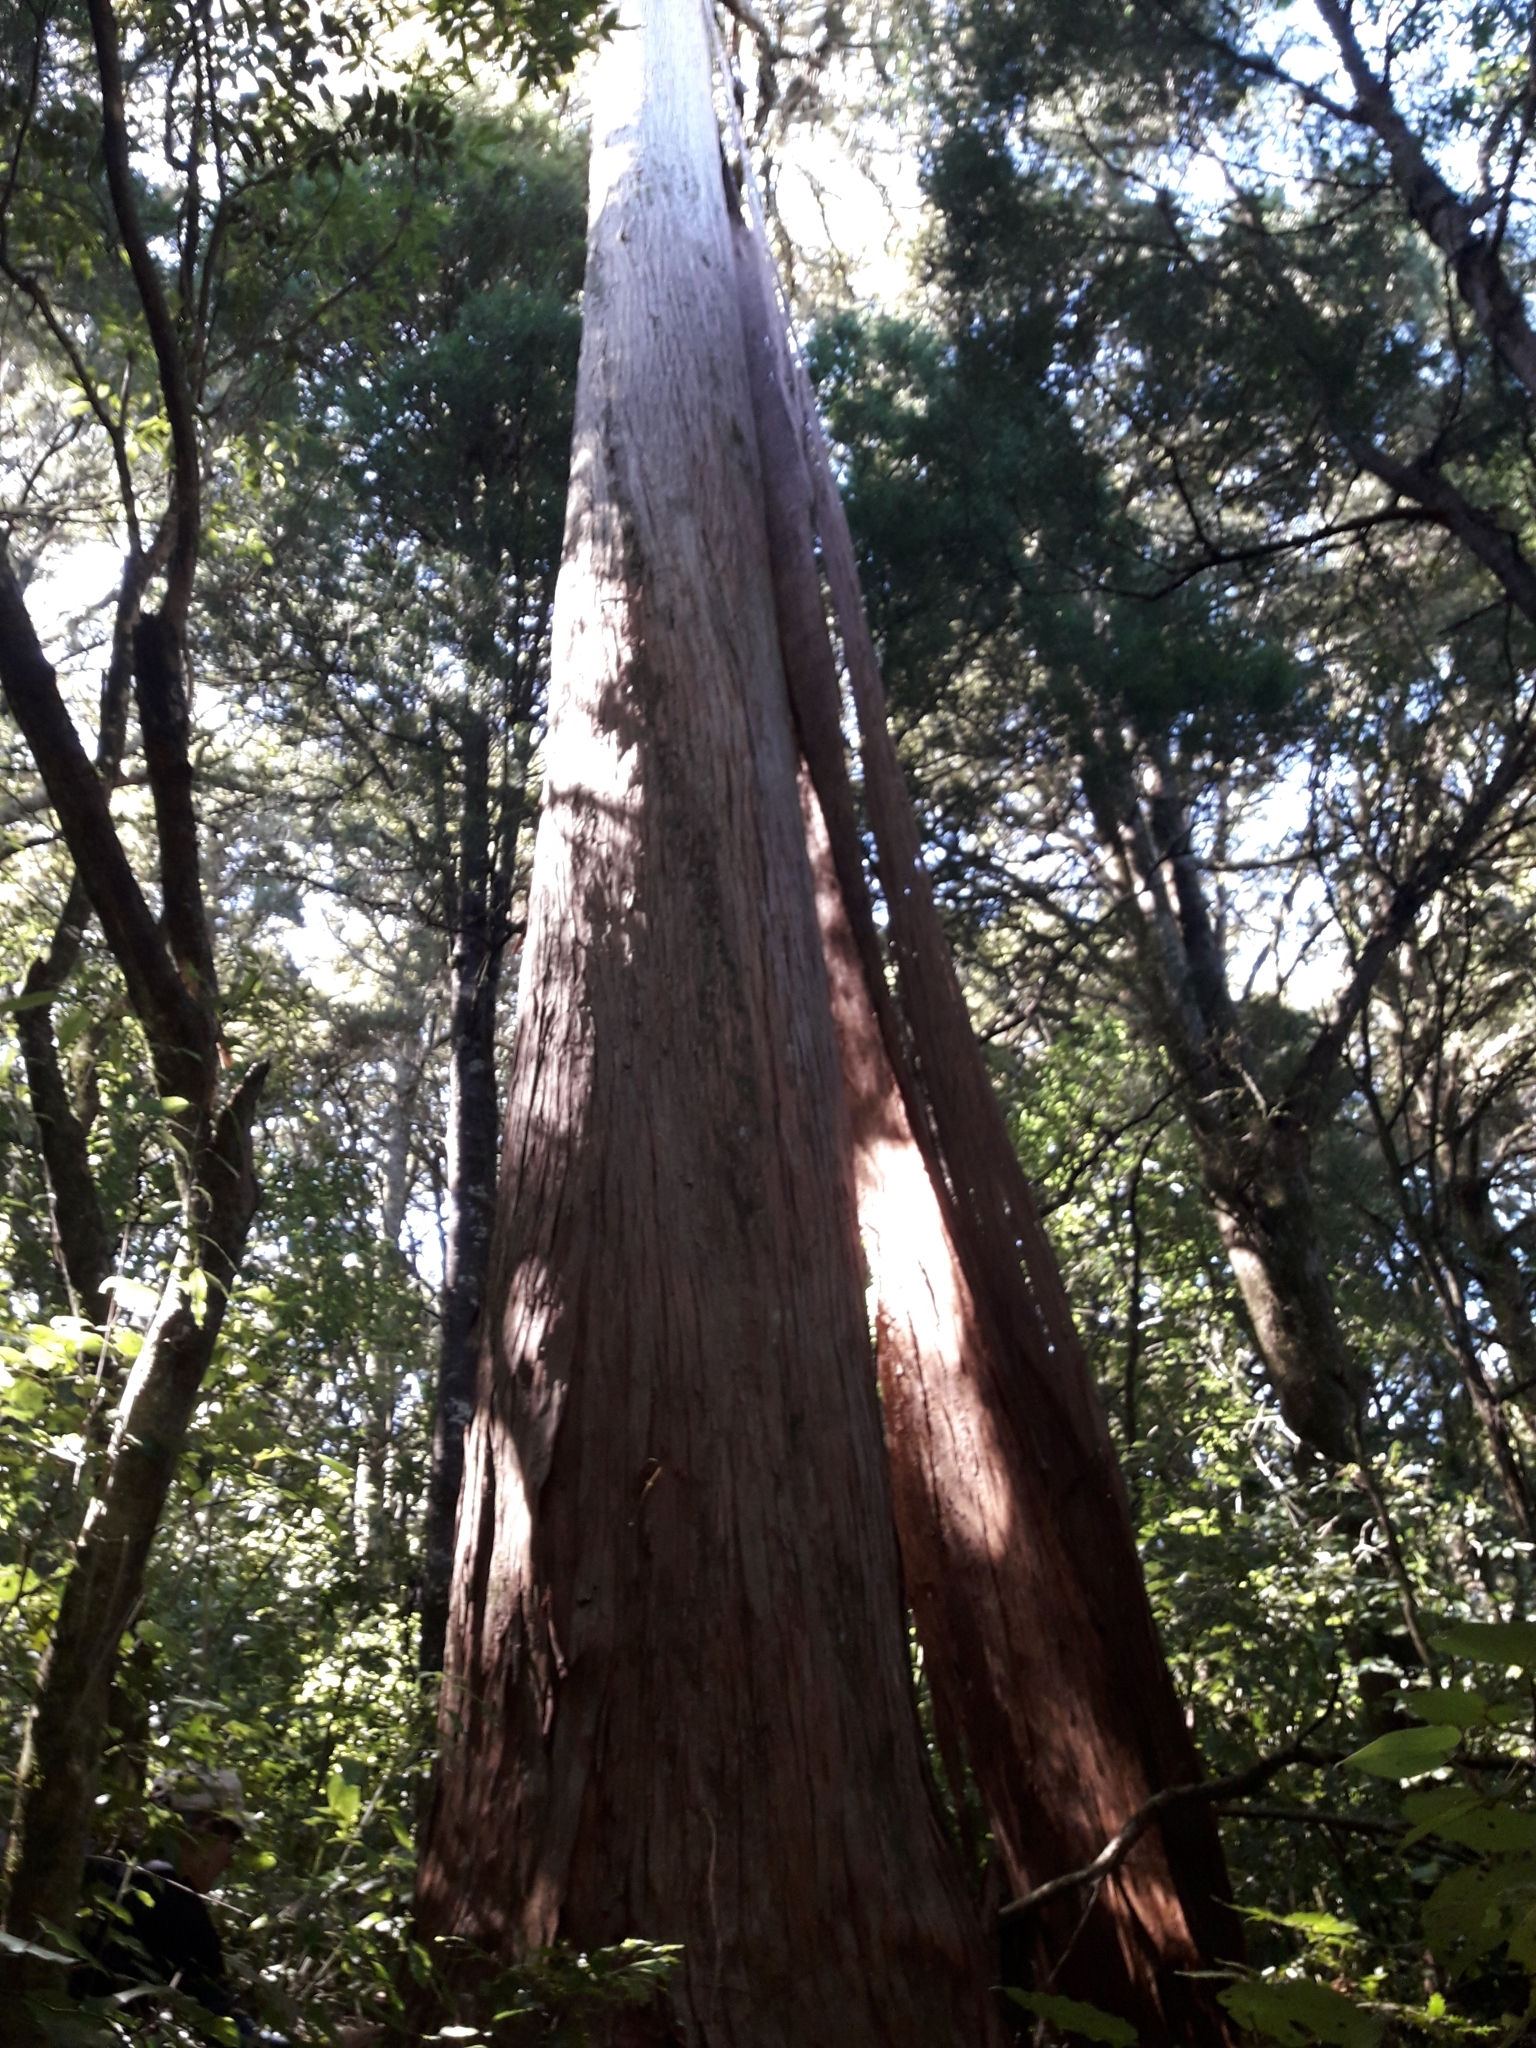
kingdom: Plantae
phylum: Tracheophyta
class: Pinopsida
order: Pinales
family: Podocarpaceae
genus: Podocarpus
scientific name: Podocarpus totara
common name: Totara
